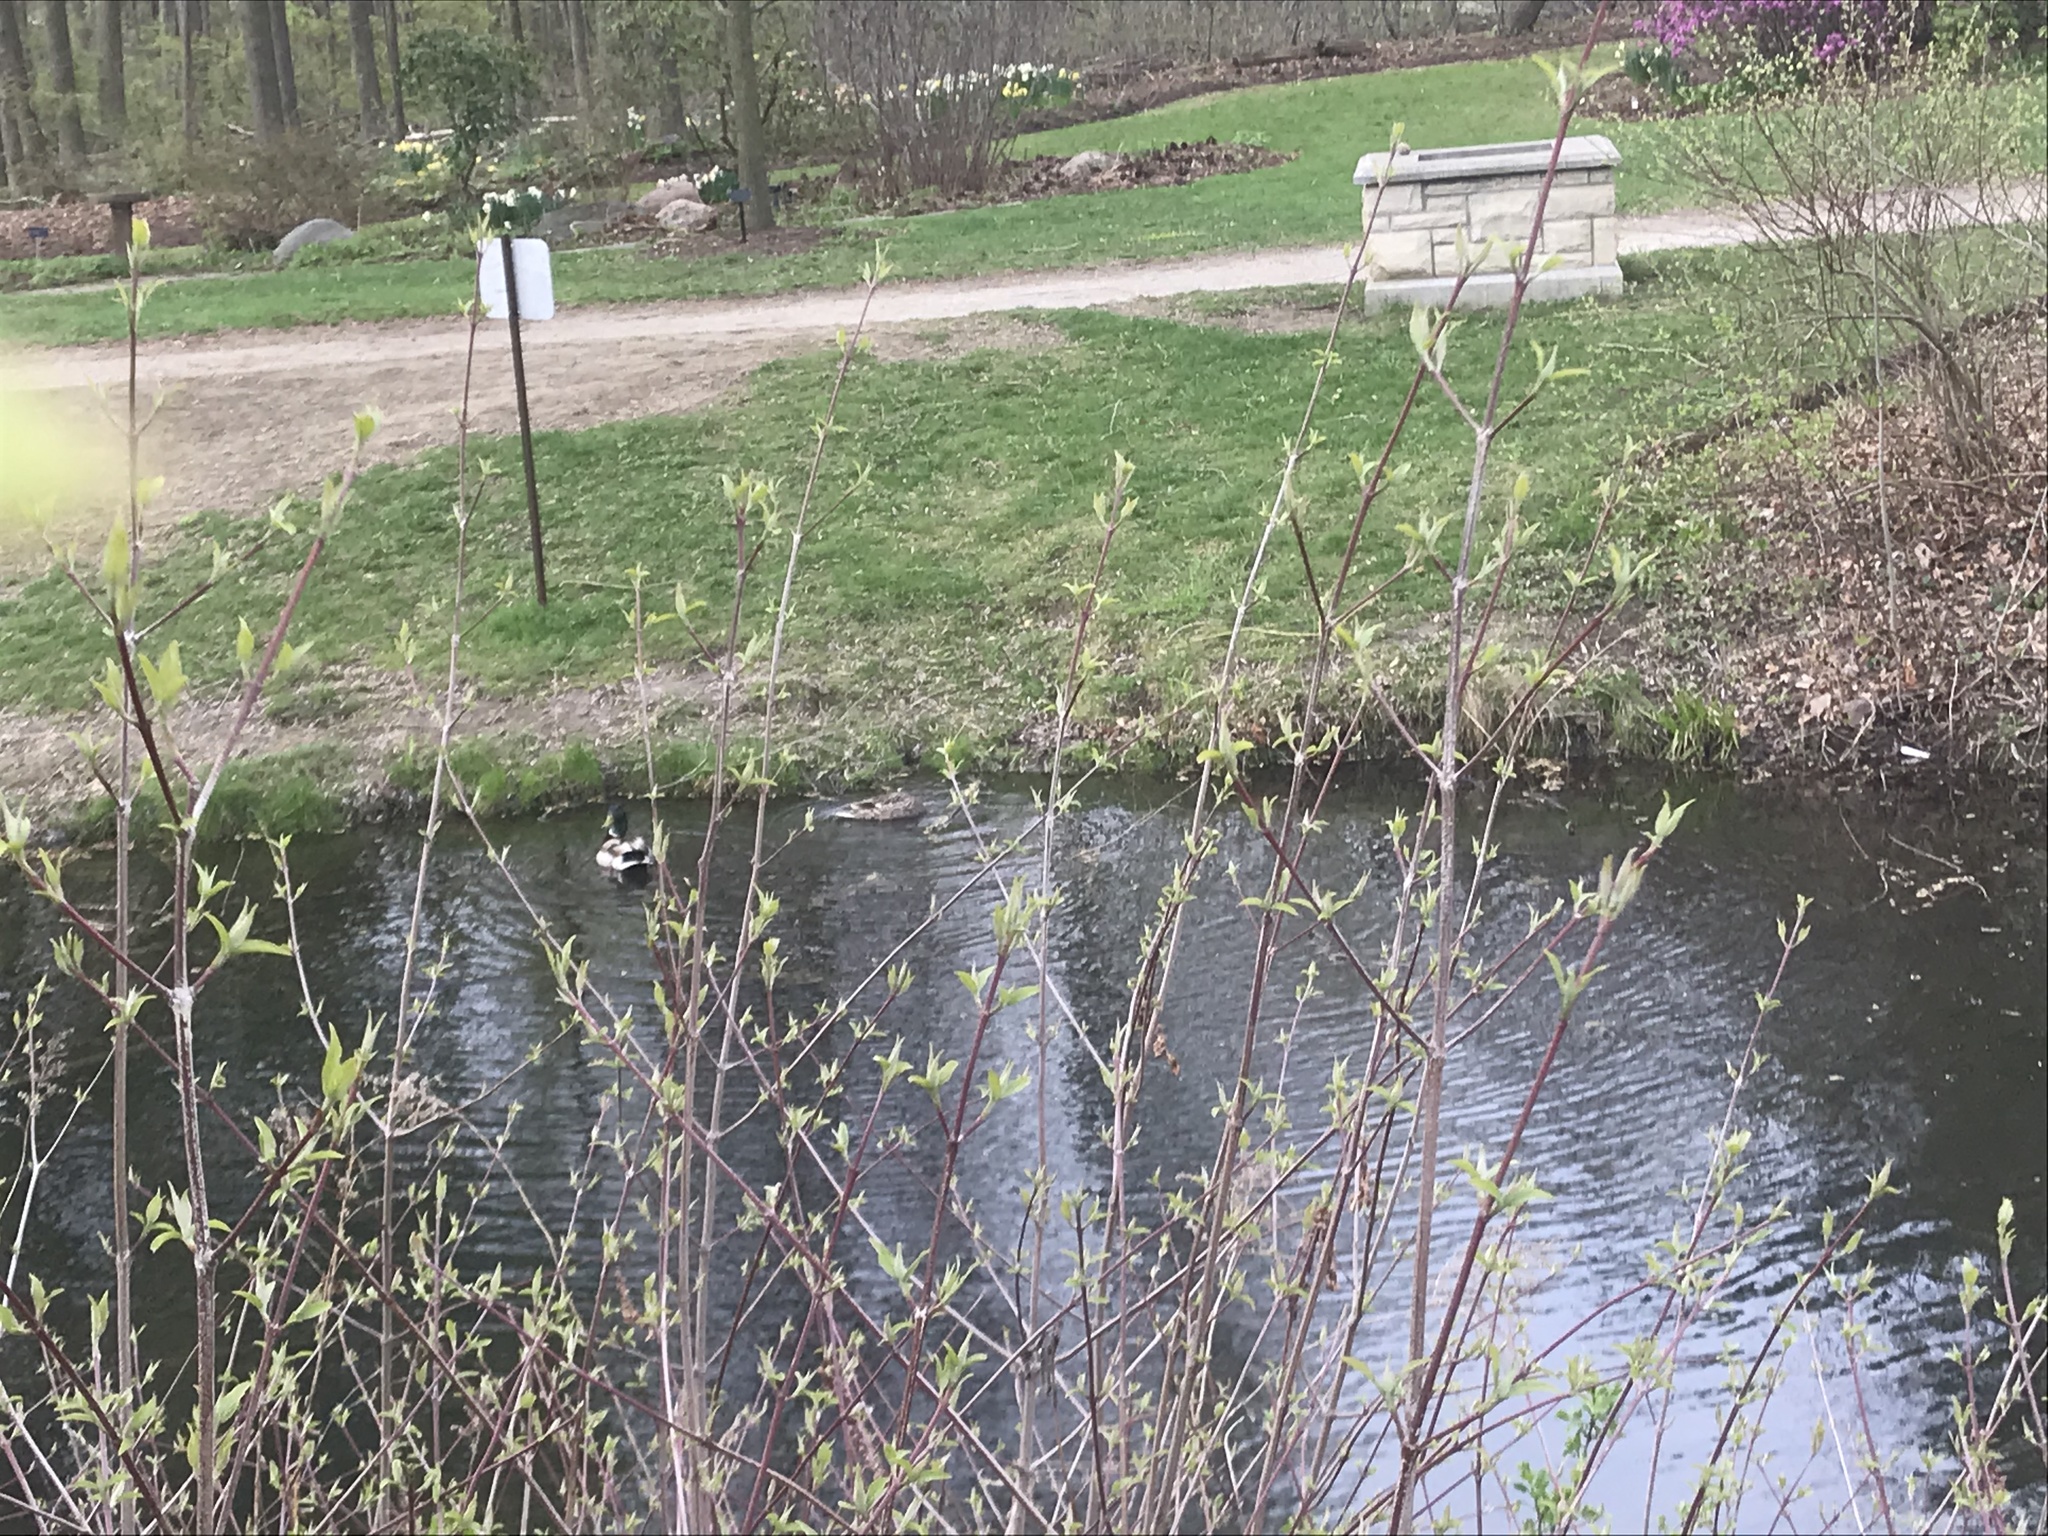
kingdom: Animalia
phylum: Chordata
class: Aves
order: Anseriformes
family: Anatidae
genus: Anas
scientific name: Anas platyrhynchos
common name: Mallard
